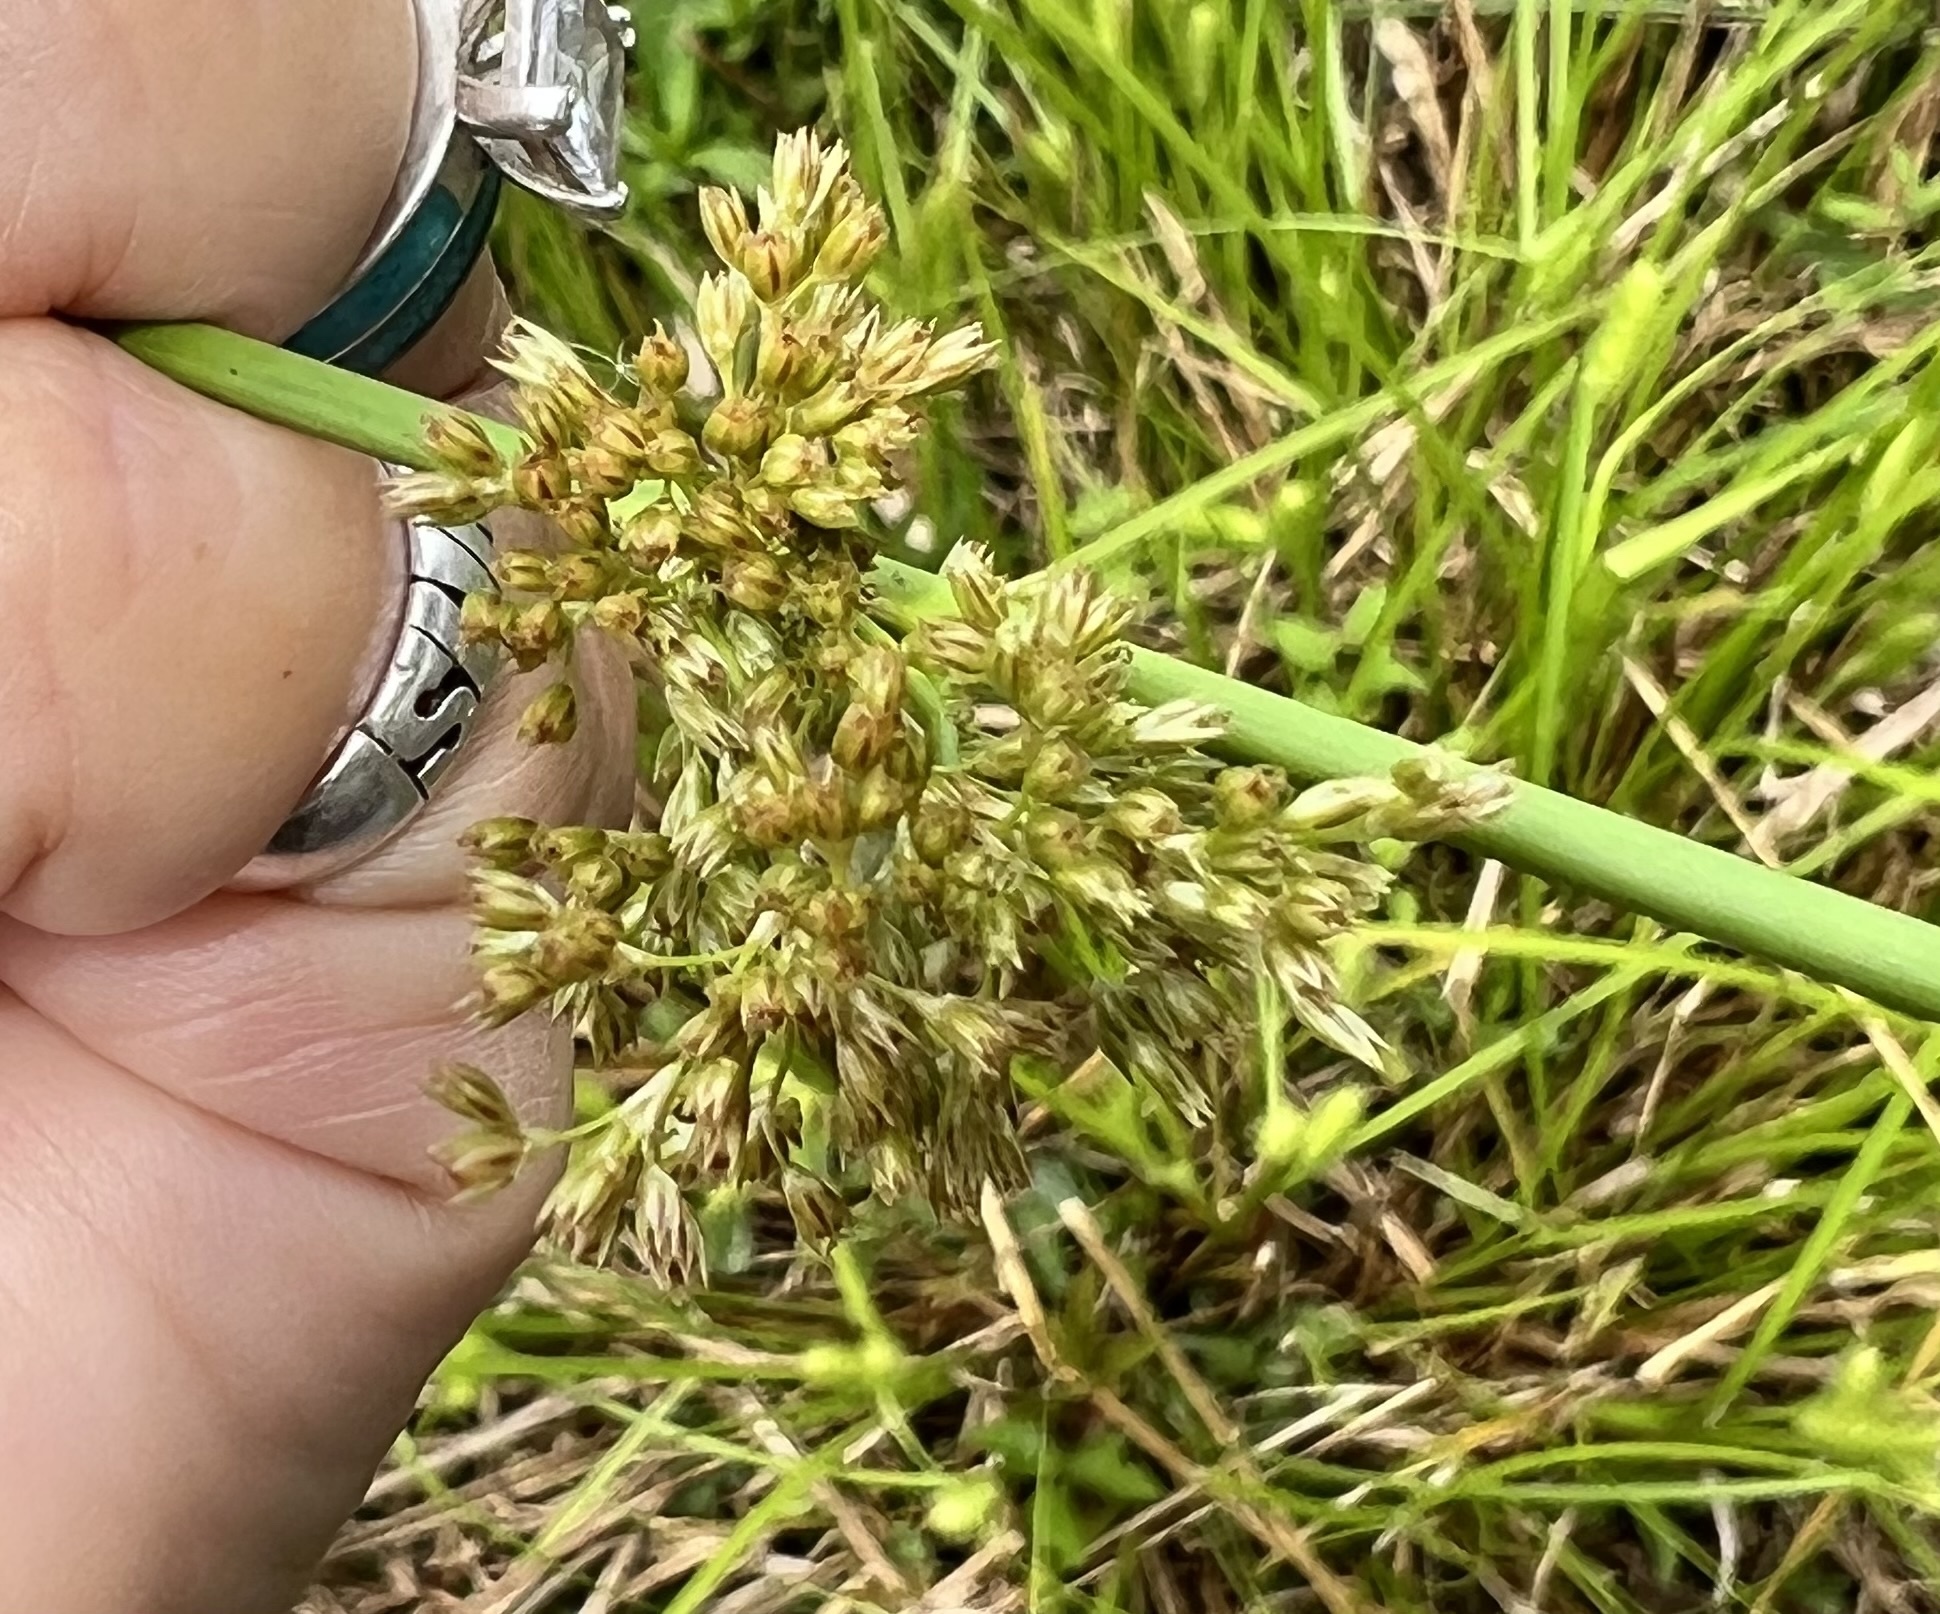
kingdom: Plantae
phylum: Tracheophyta
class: Liliopsida
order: Poales
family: Juncaceae
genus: Juncus
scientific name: Juncus effusus
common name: Soft rush
